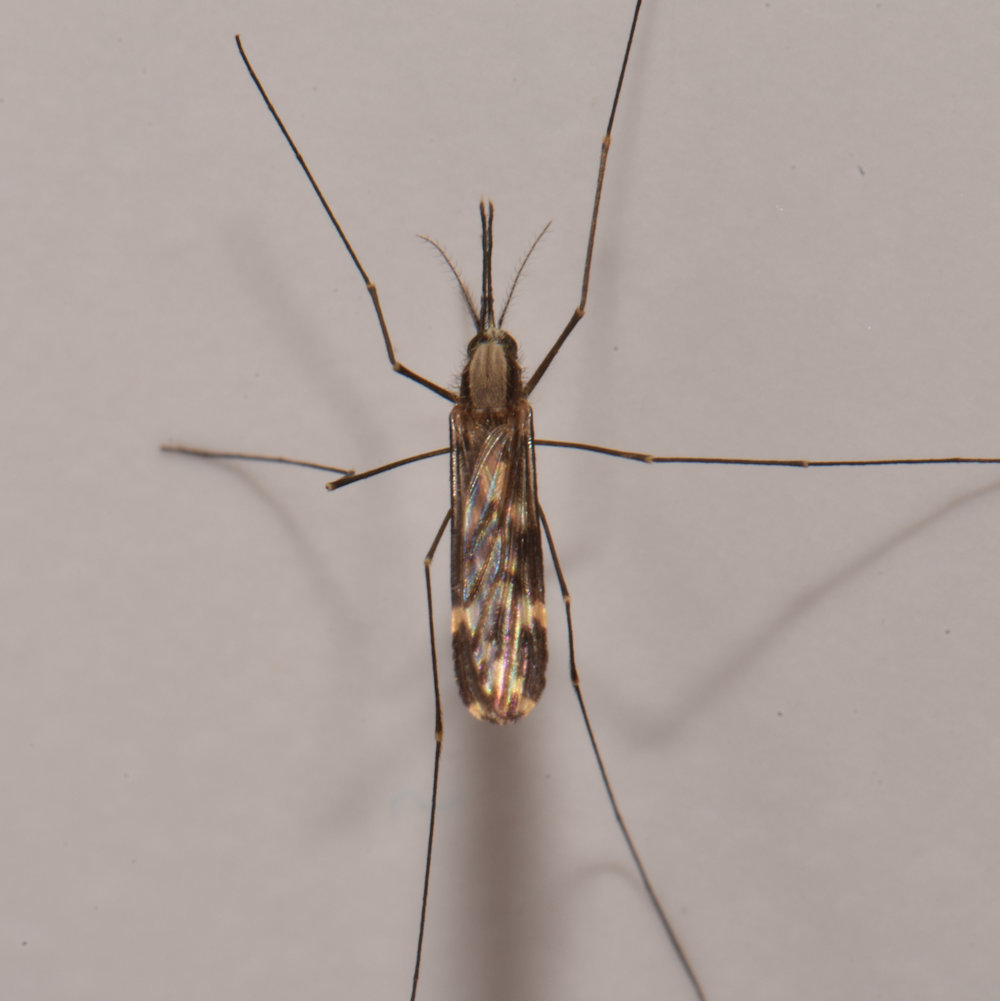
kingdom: Animalia
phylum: Arthropoda
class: Insecta
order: Diptera
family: Culicidae
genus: Anopheles
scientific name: Anopheles punctipennis
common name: Woodland malaria mosquito
